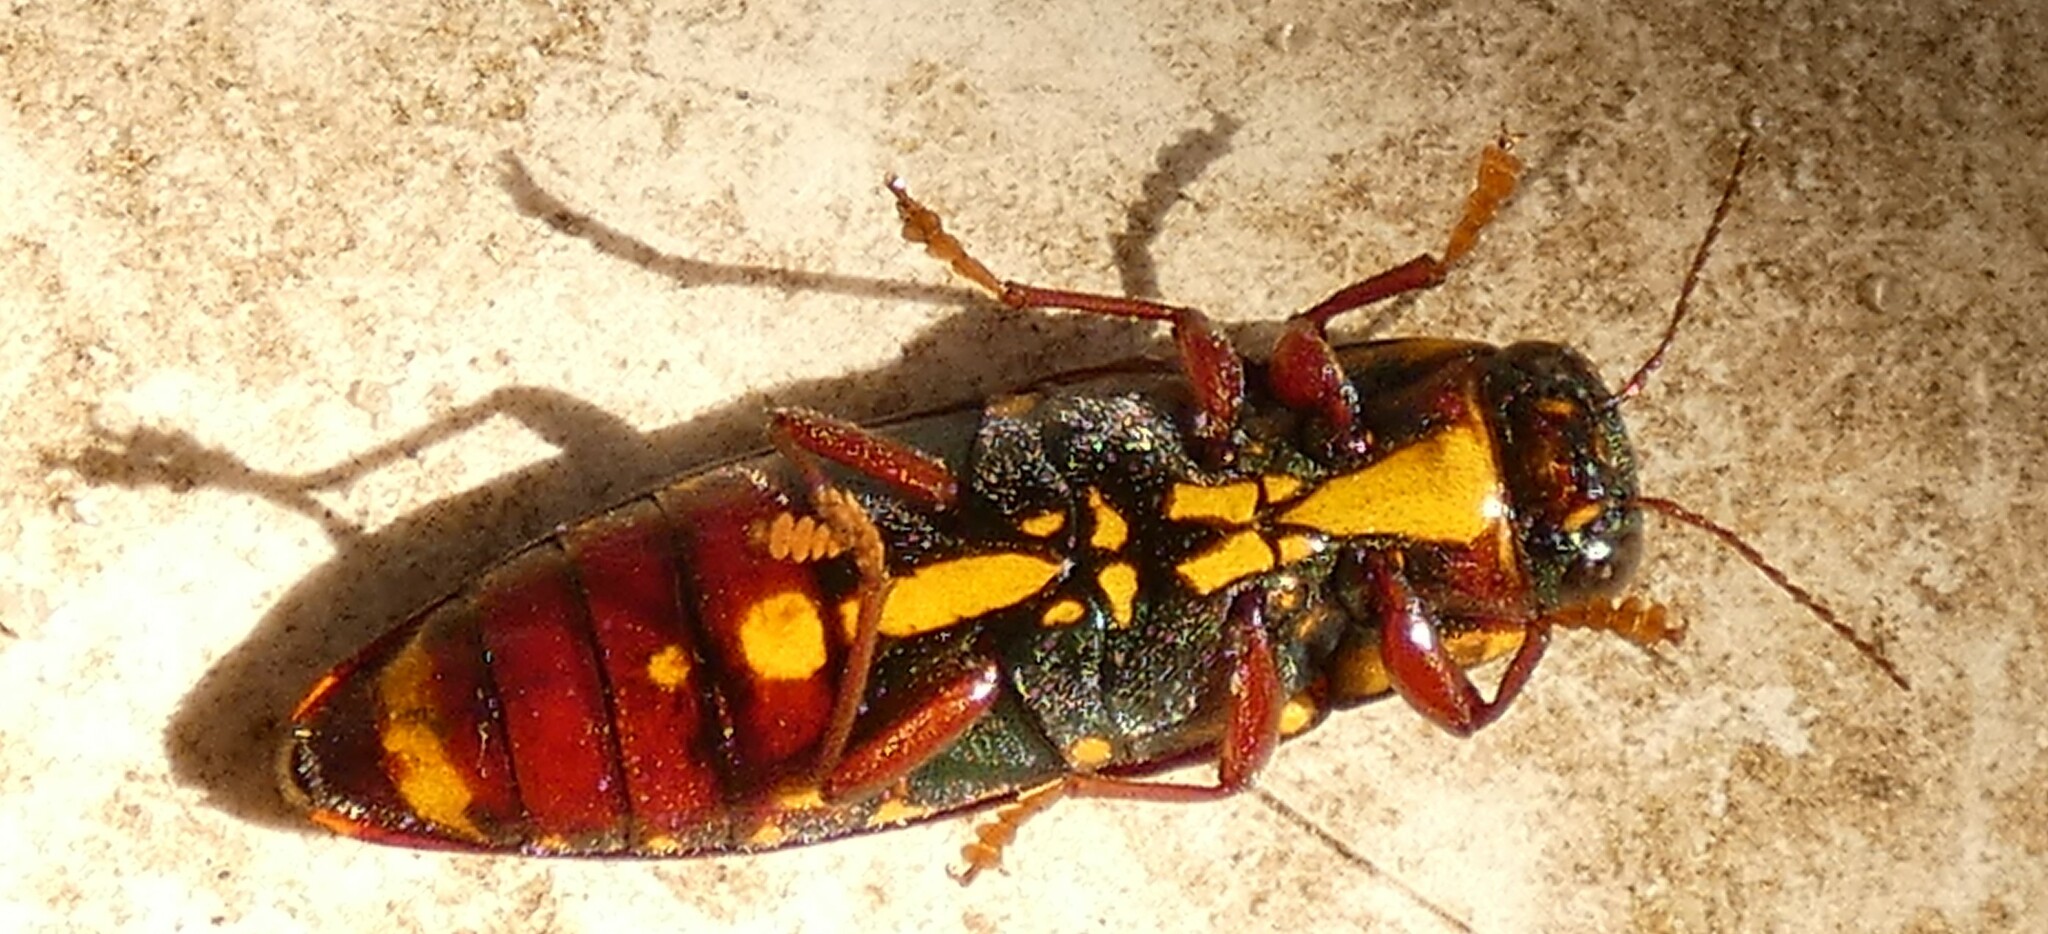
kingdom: Animalia
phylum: Arthropoda
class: Insecta
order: Coleoptera
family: Buprestidae
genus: Buprestis
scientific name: Buprestis rufipes
